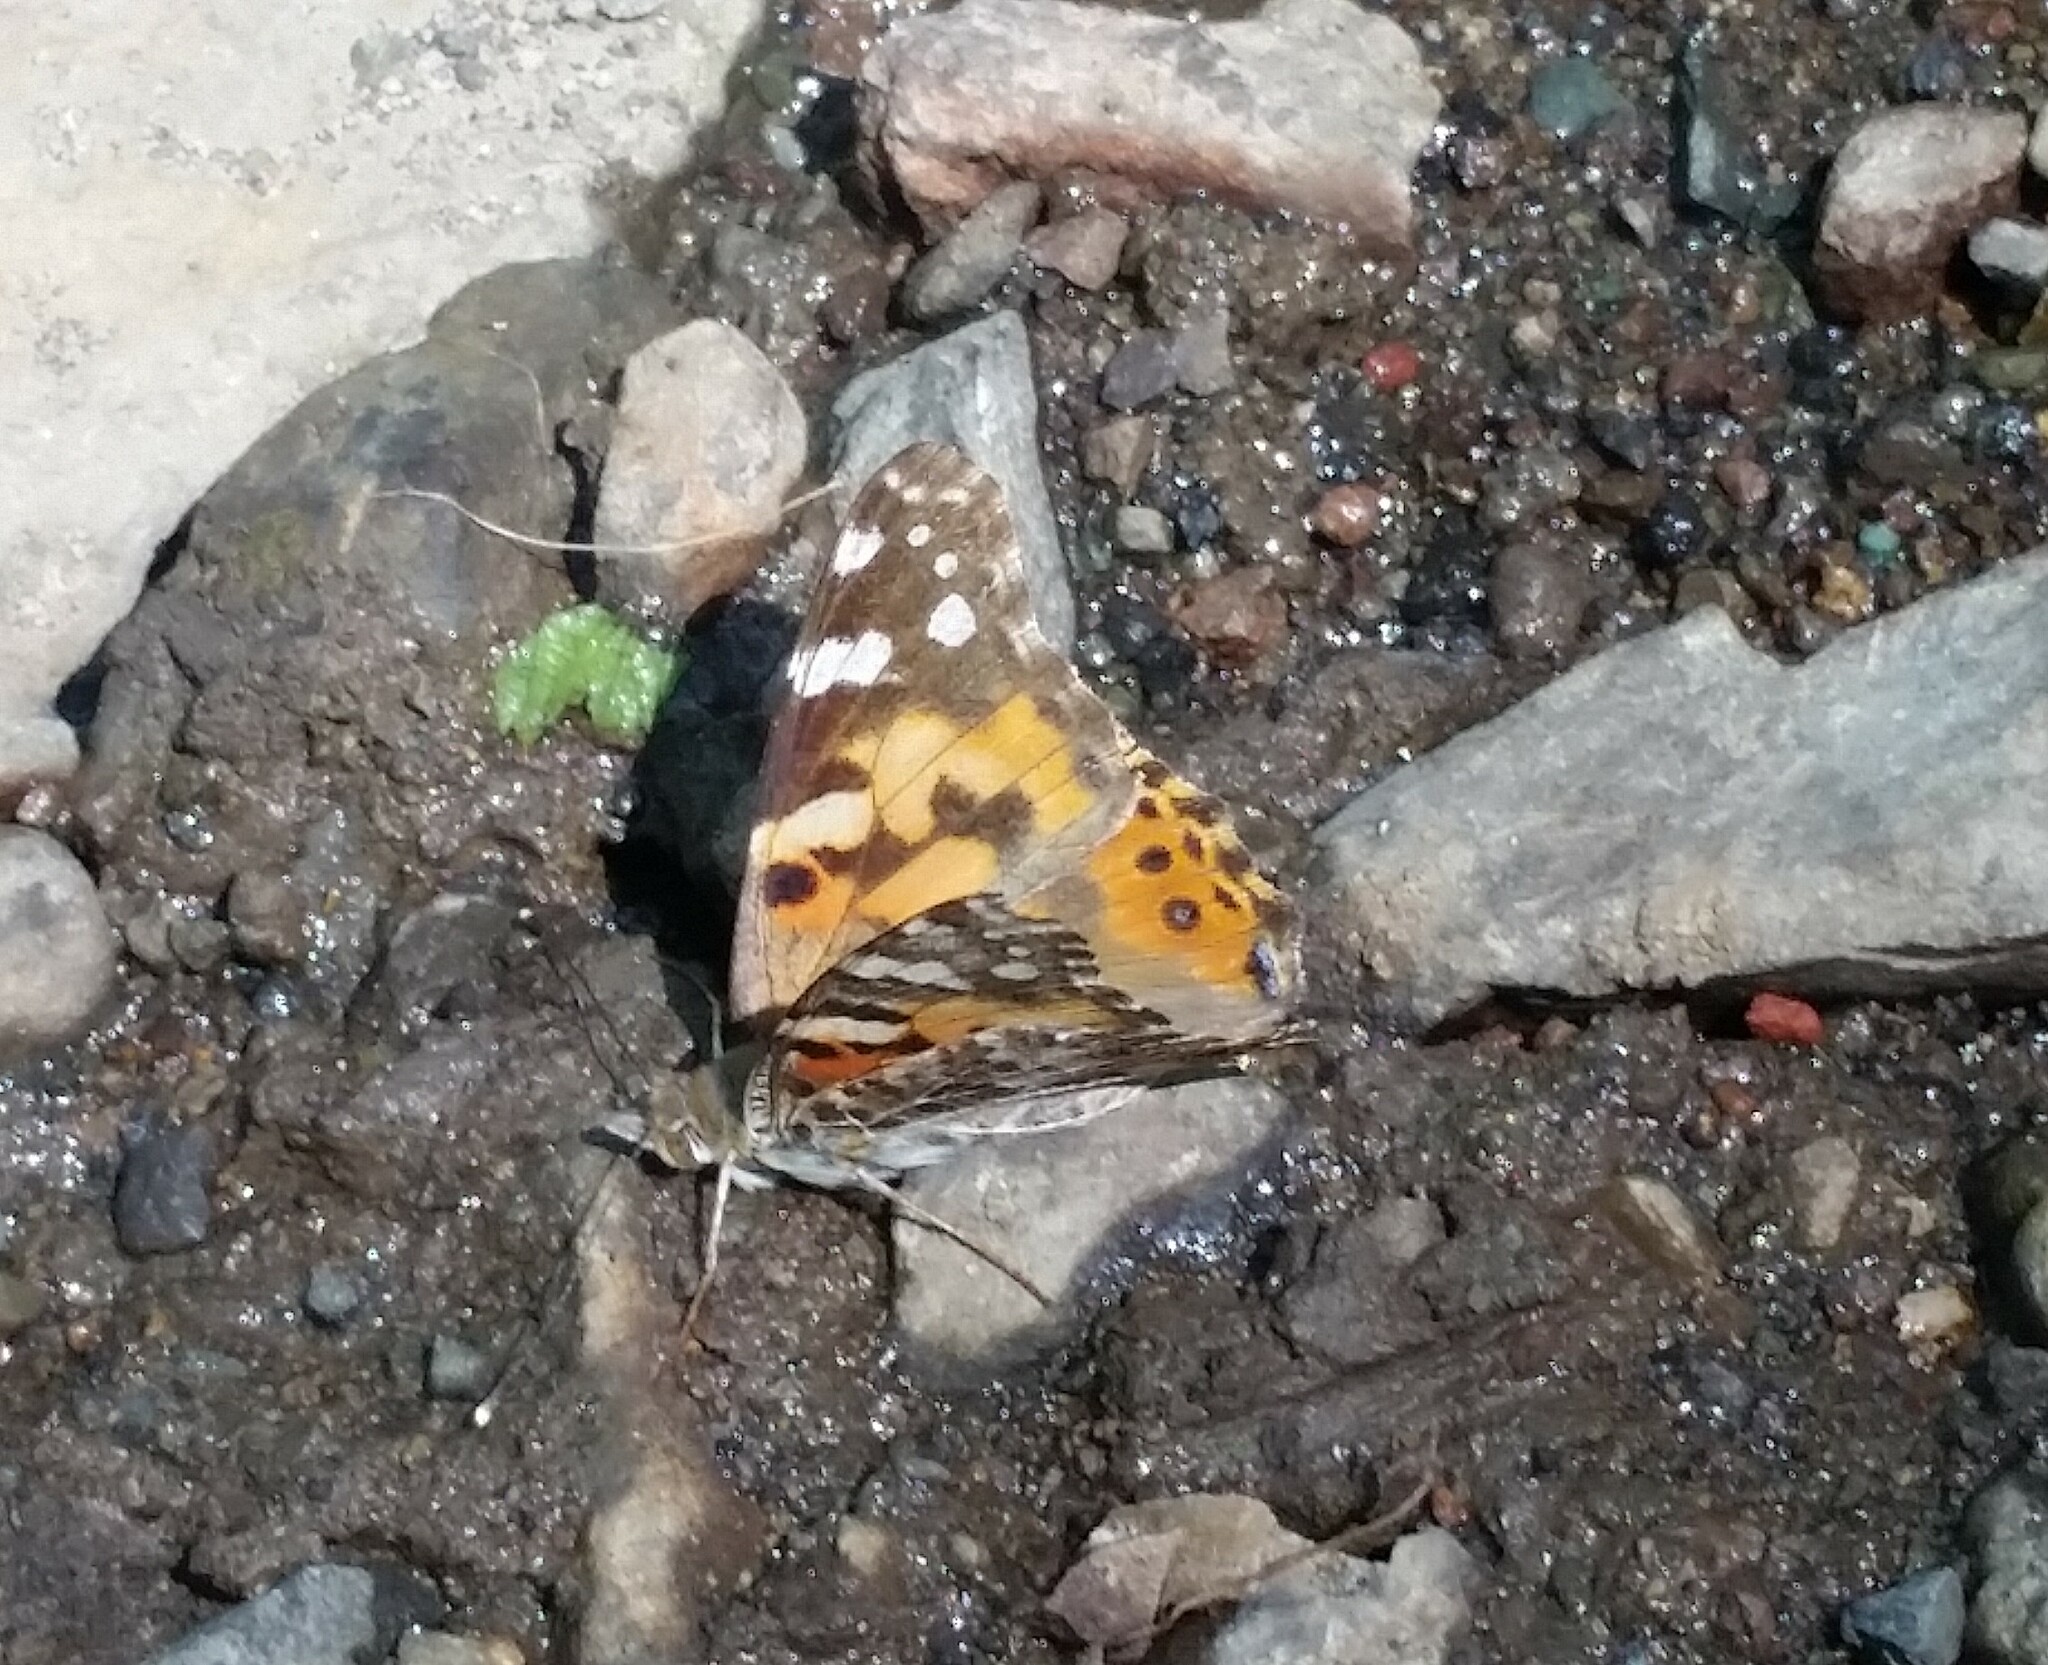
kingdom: Animalia
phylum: Arthropoda
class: Insecta
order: Lepidoptera
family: Nymphalidae
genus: Vanessa
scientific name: Vanessa cardui
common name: Painted lady
